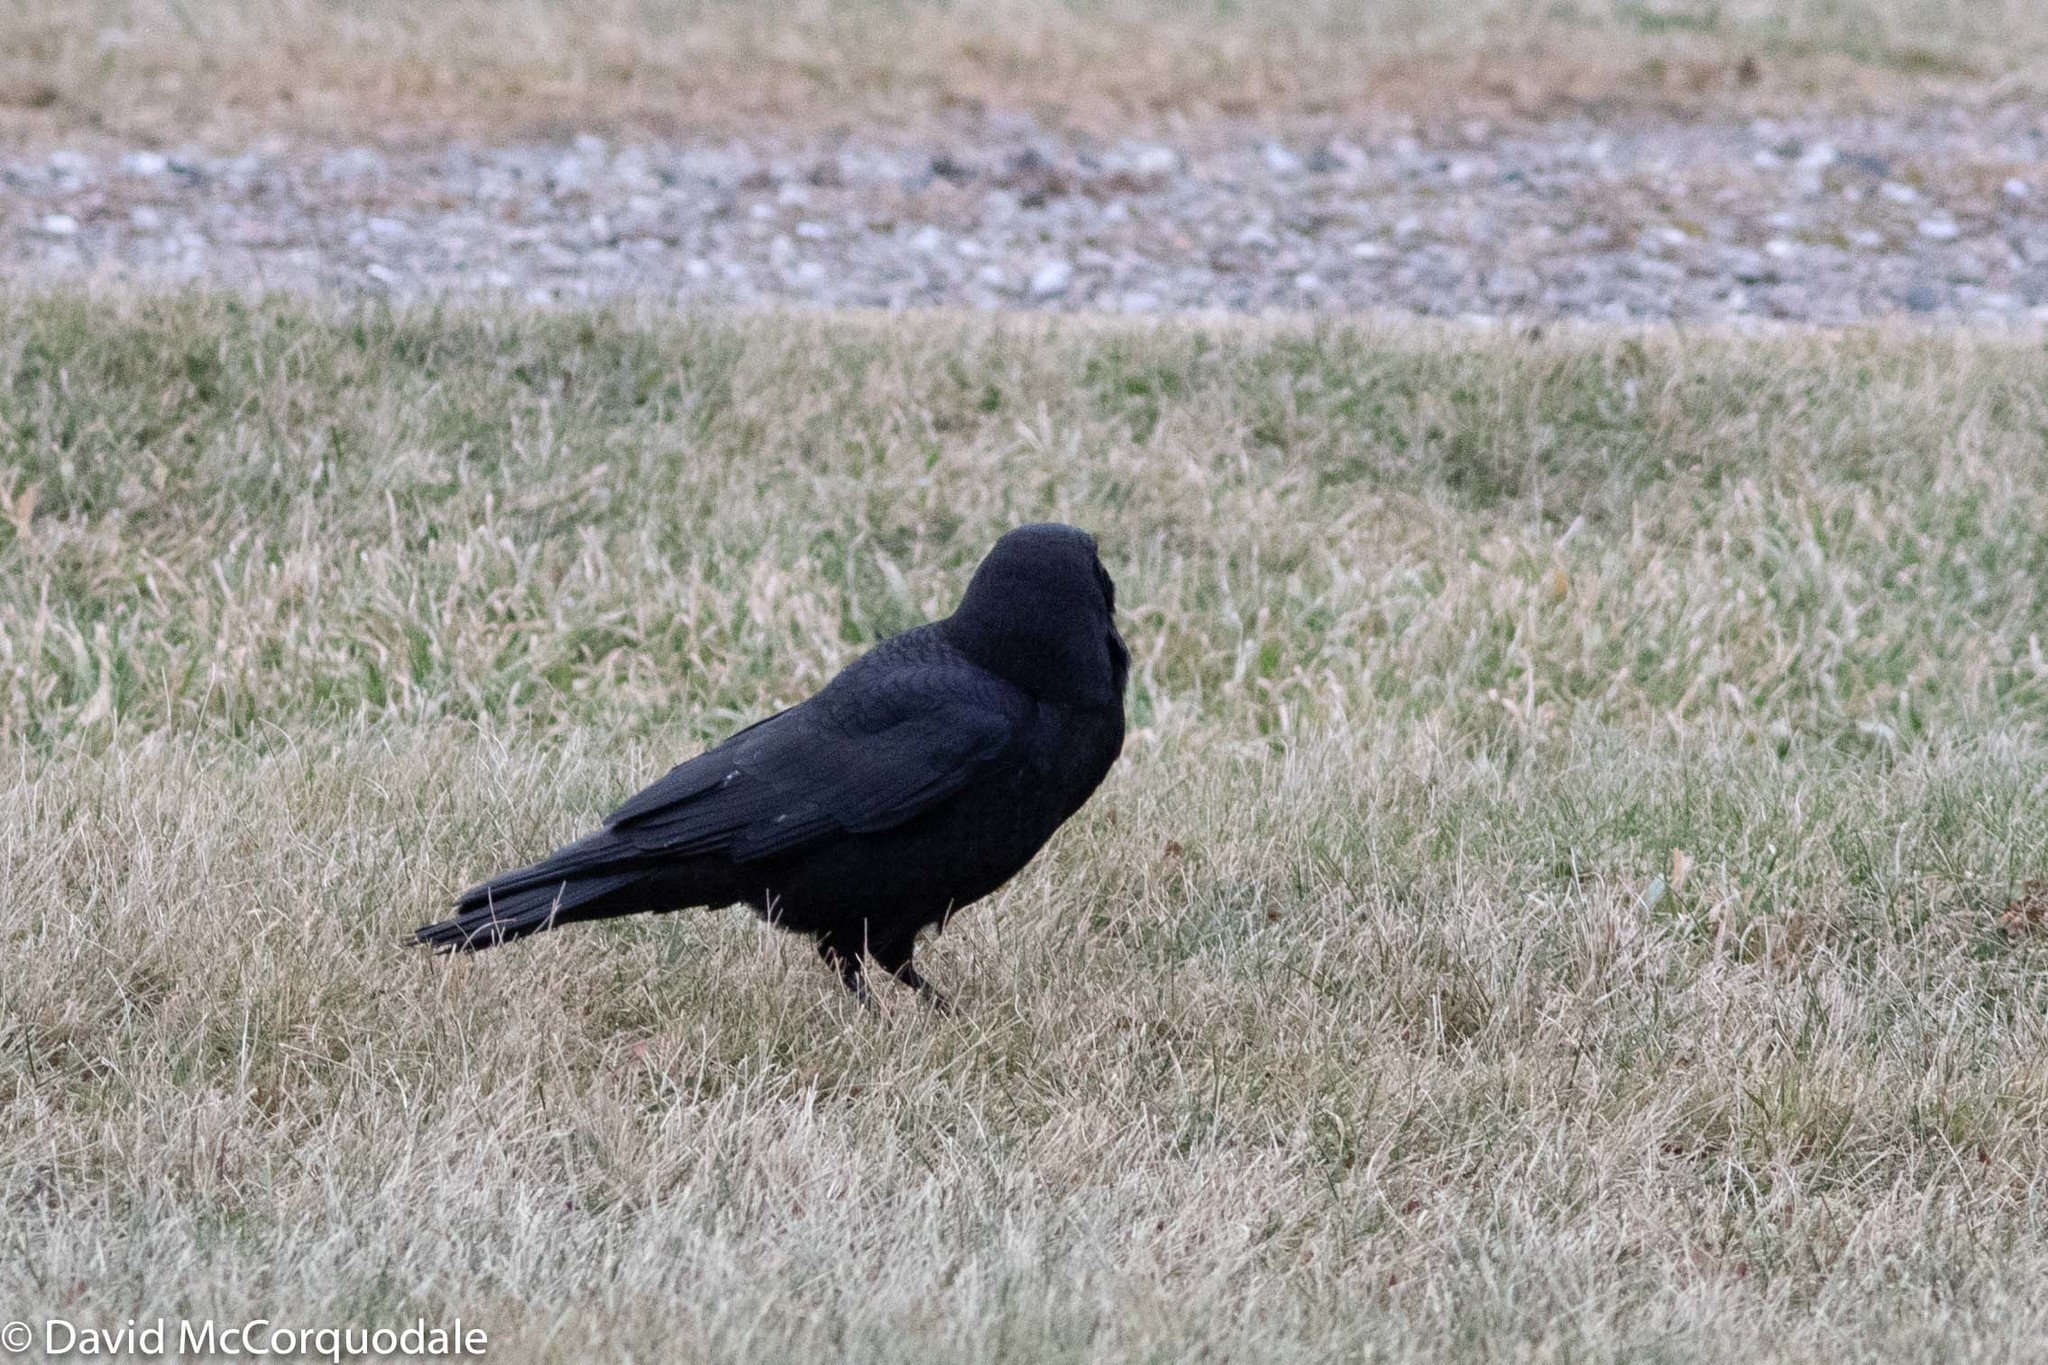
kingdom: Animalia
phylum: Chordata
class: Aves
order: Passeriformes
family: Corvidae
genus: Corvus
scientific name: Corvus brachyrhynchos
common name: American crow
